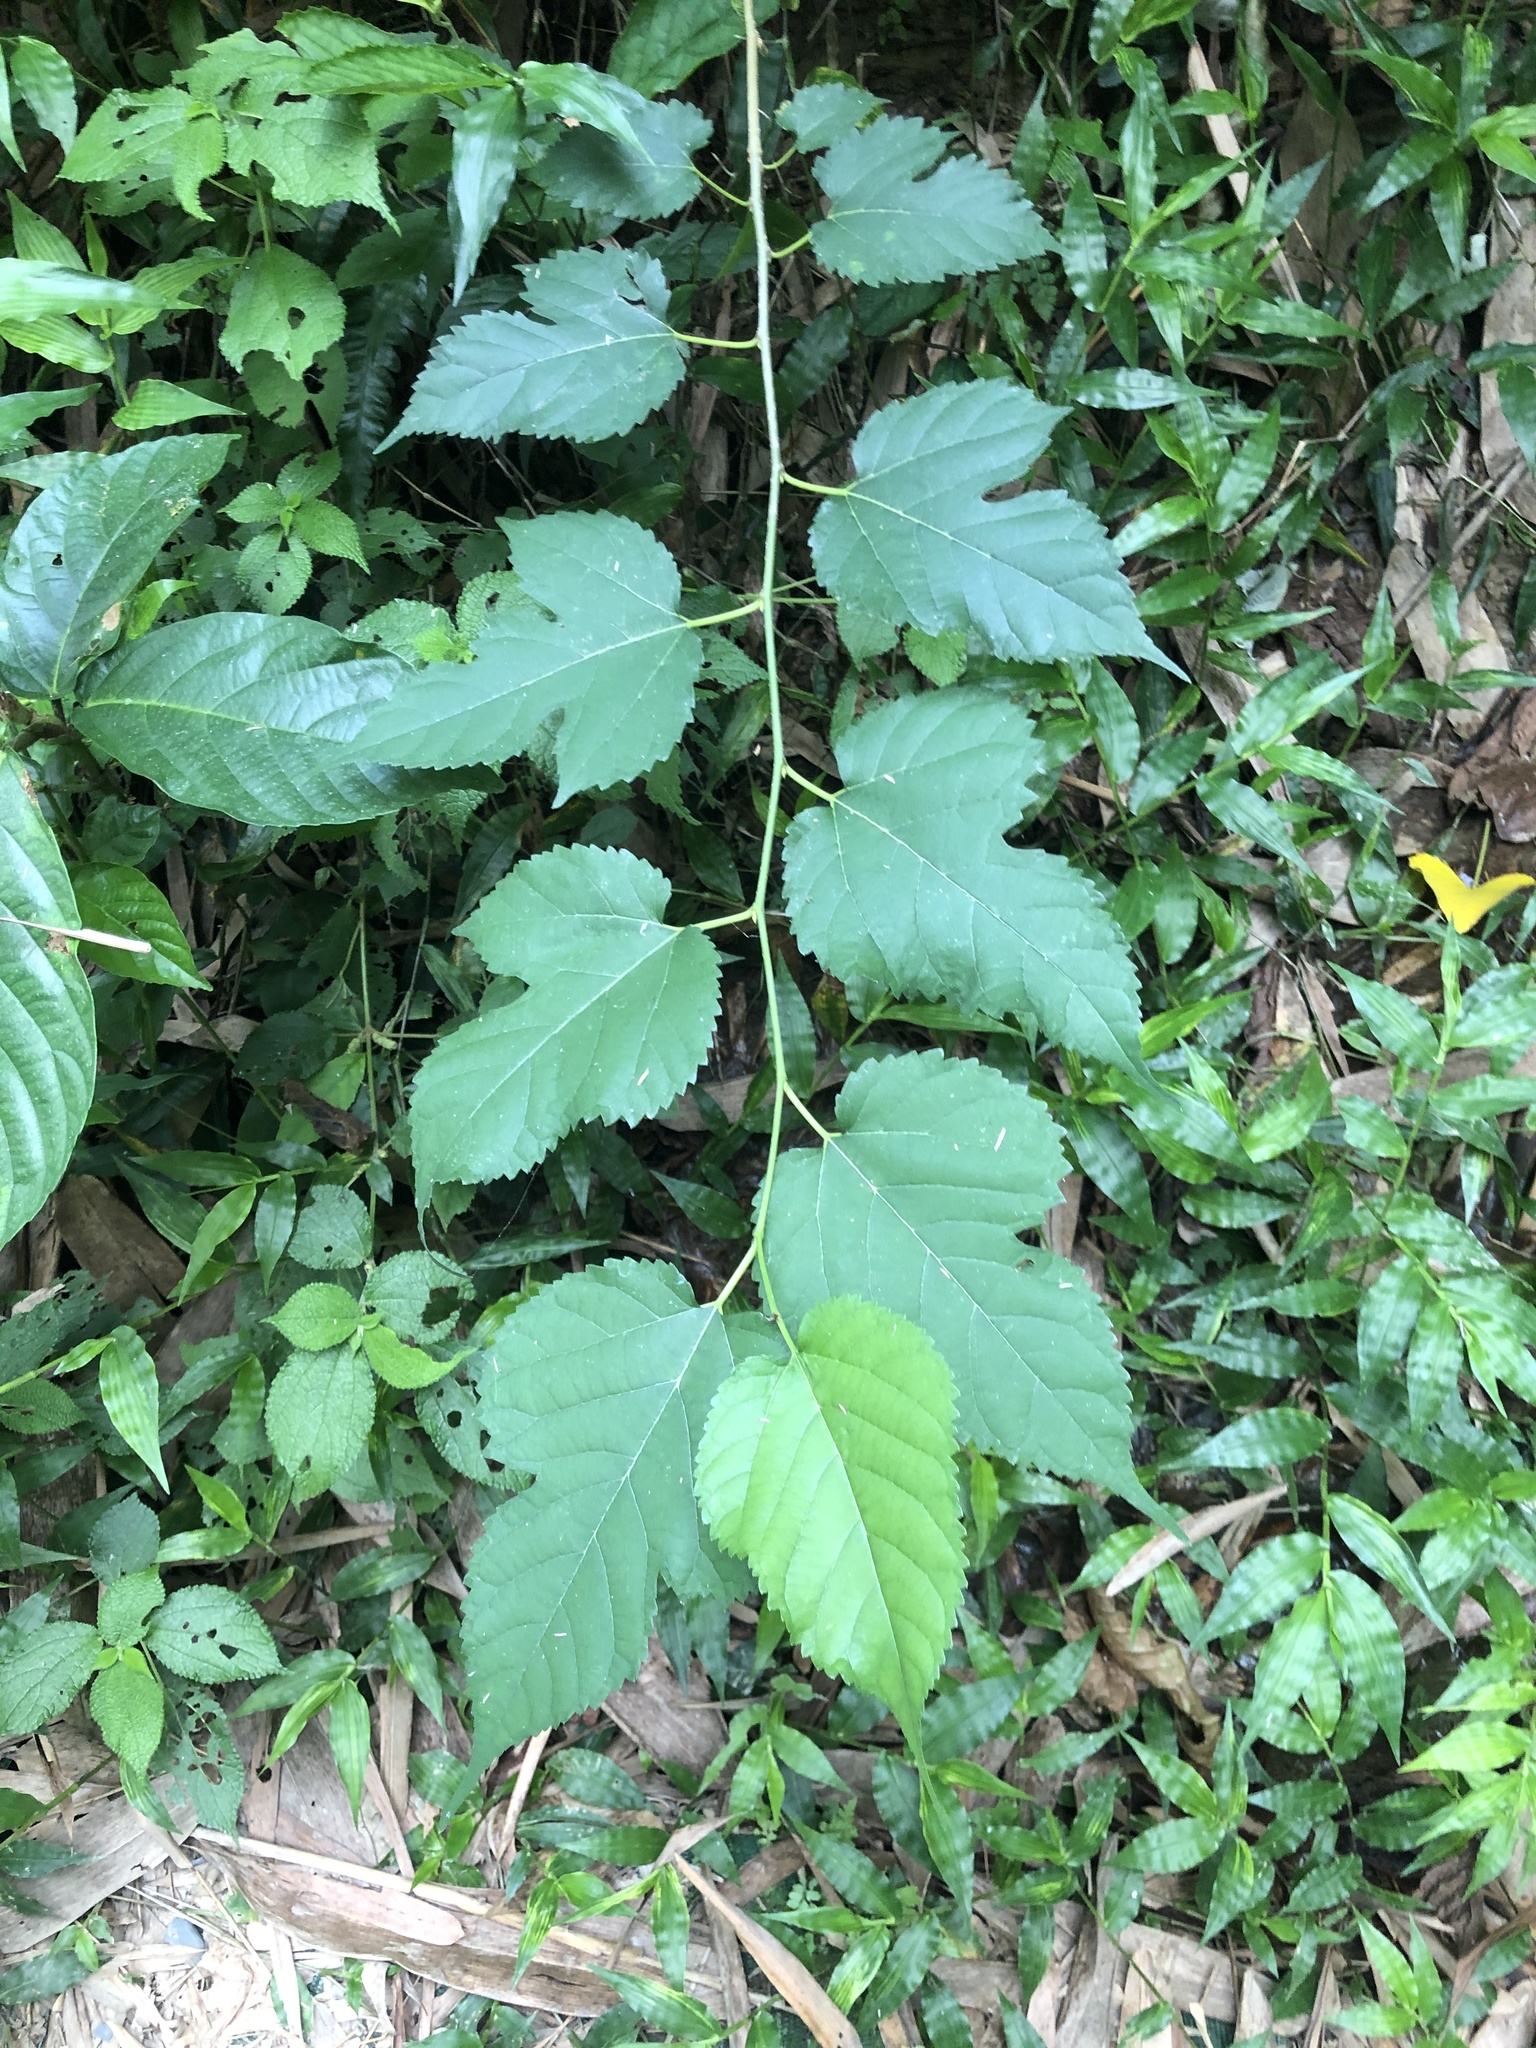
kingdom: Plantae
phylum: Tracheophyta
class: Magnoliopsida
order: Rosales
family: Moraceae
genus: Morus
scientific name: Morus indica
